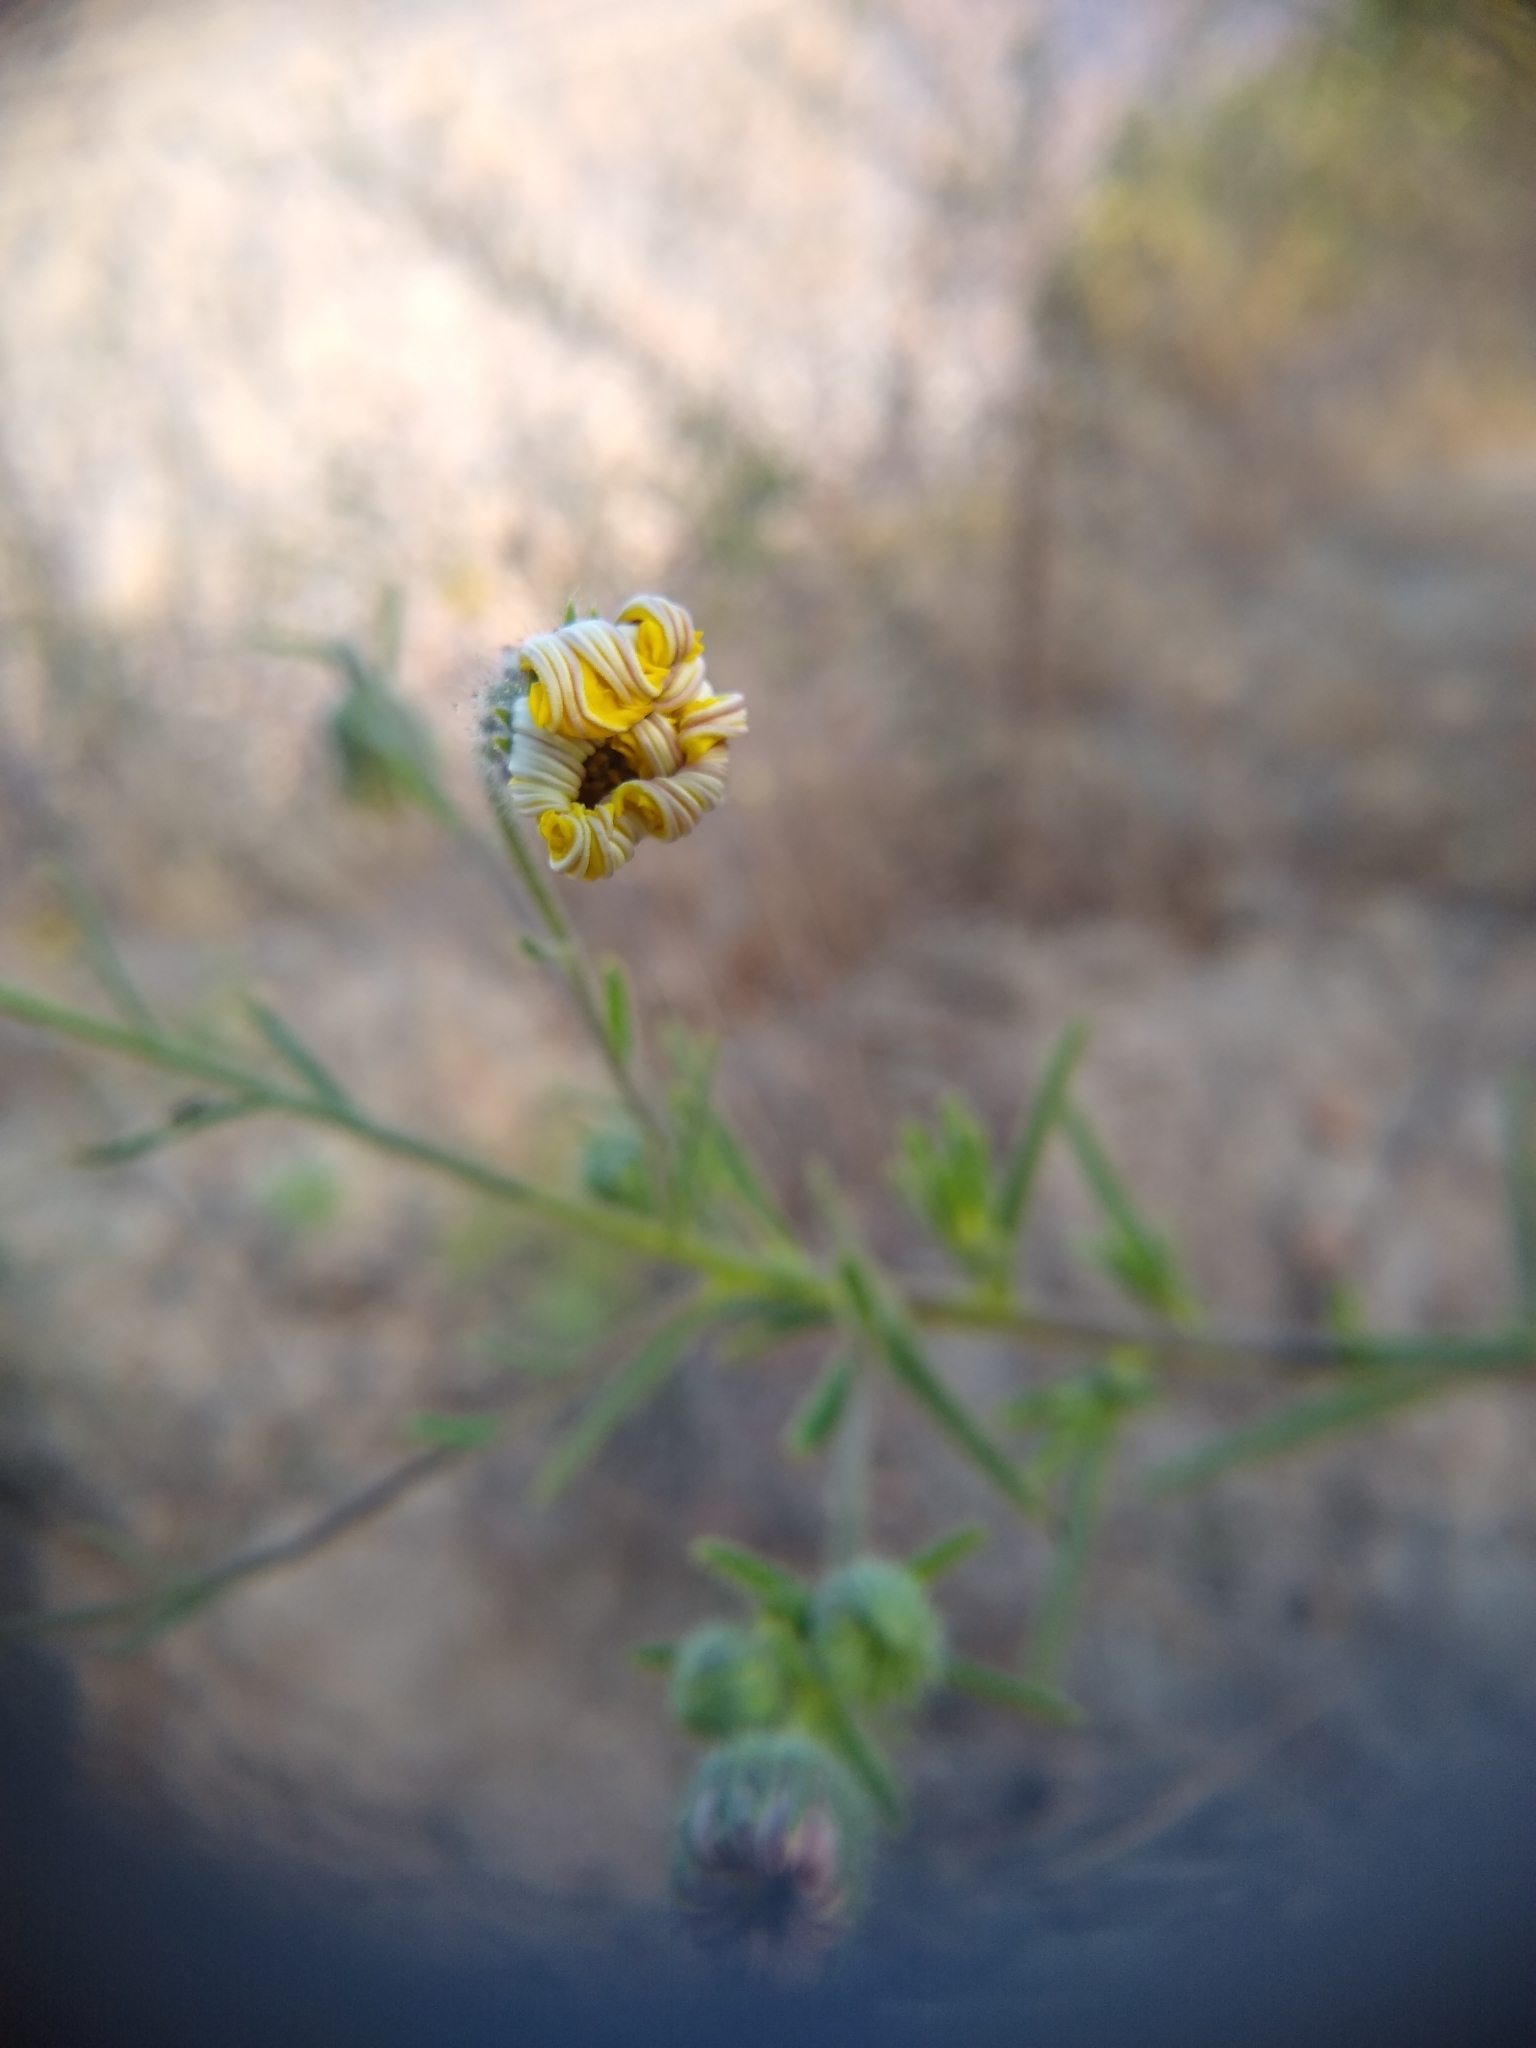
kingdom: Plantae
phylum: Tracheophyta
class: Magnoliopsida
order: Asterales
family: Asteraceae
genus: Madia
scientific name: Madia elegans
